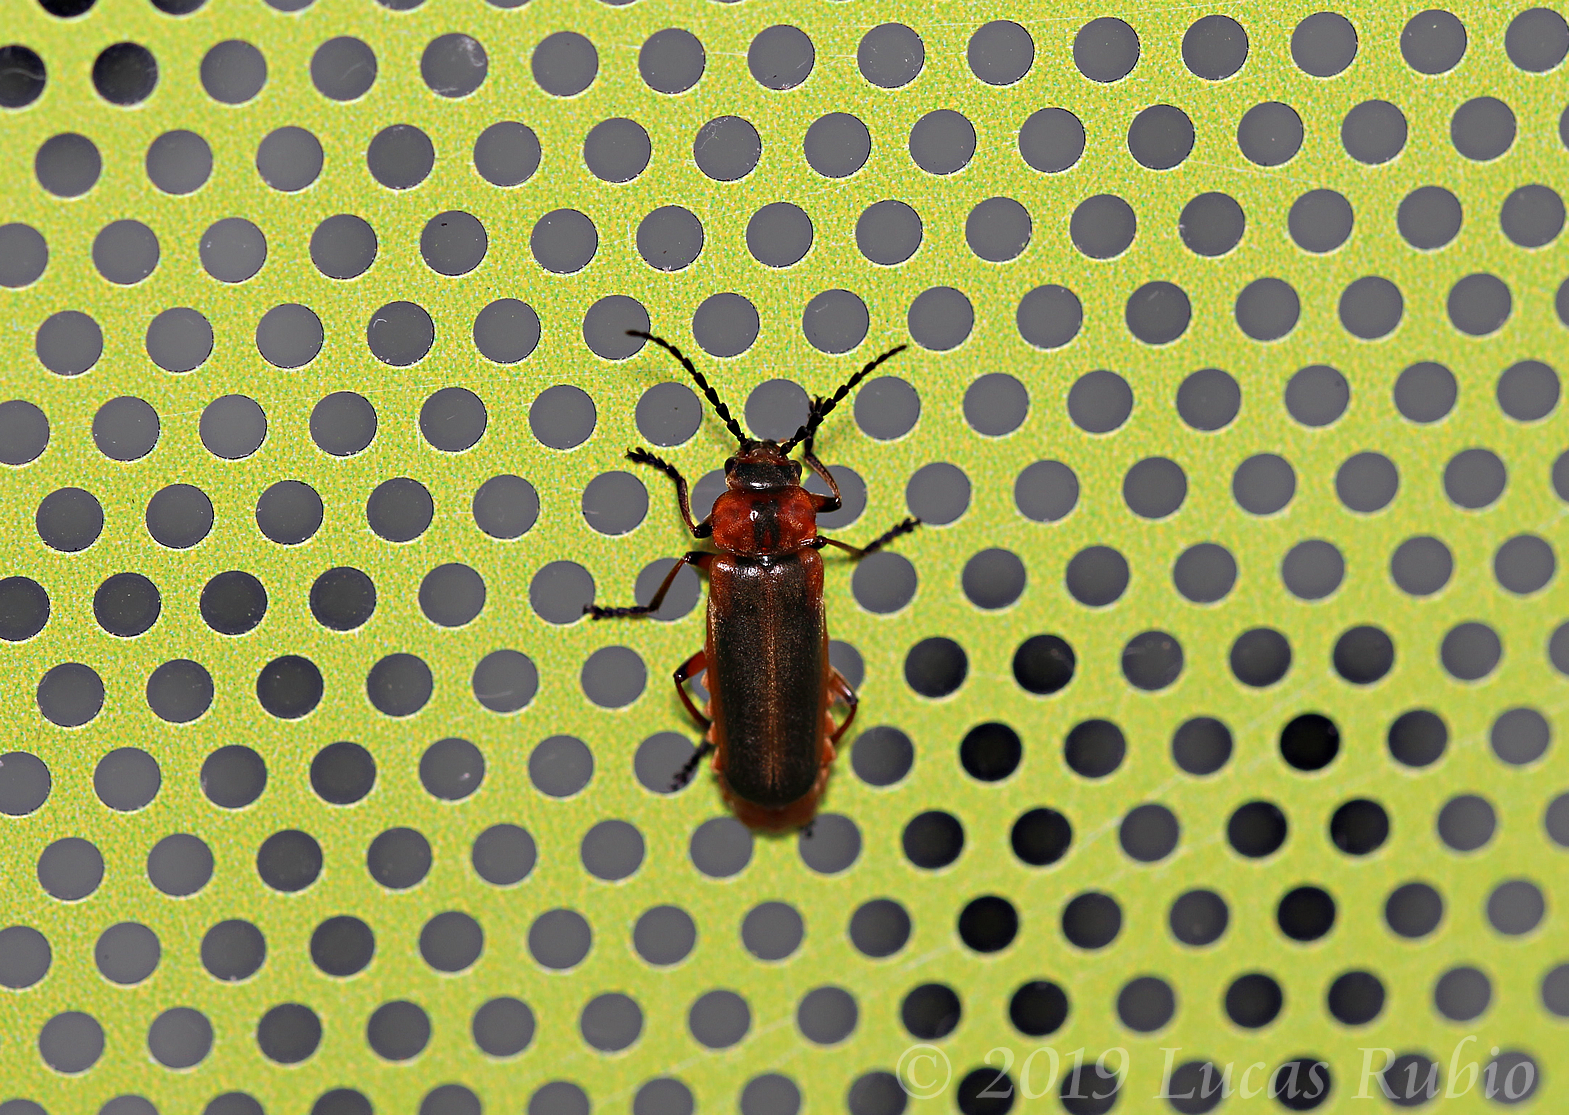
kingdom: Animalia
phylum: Arthropoda
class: Insecta
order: Coleoptera
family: Cantharidae
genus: Discodon
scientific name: Discodon
